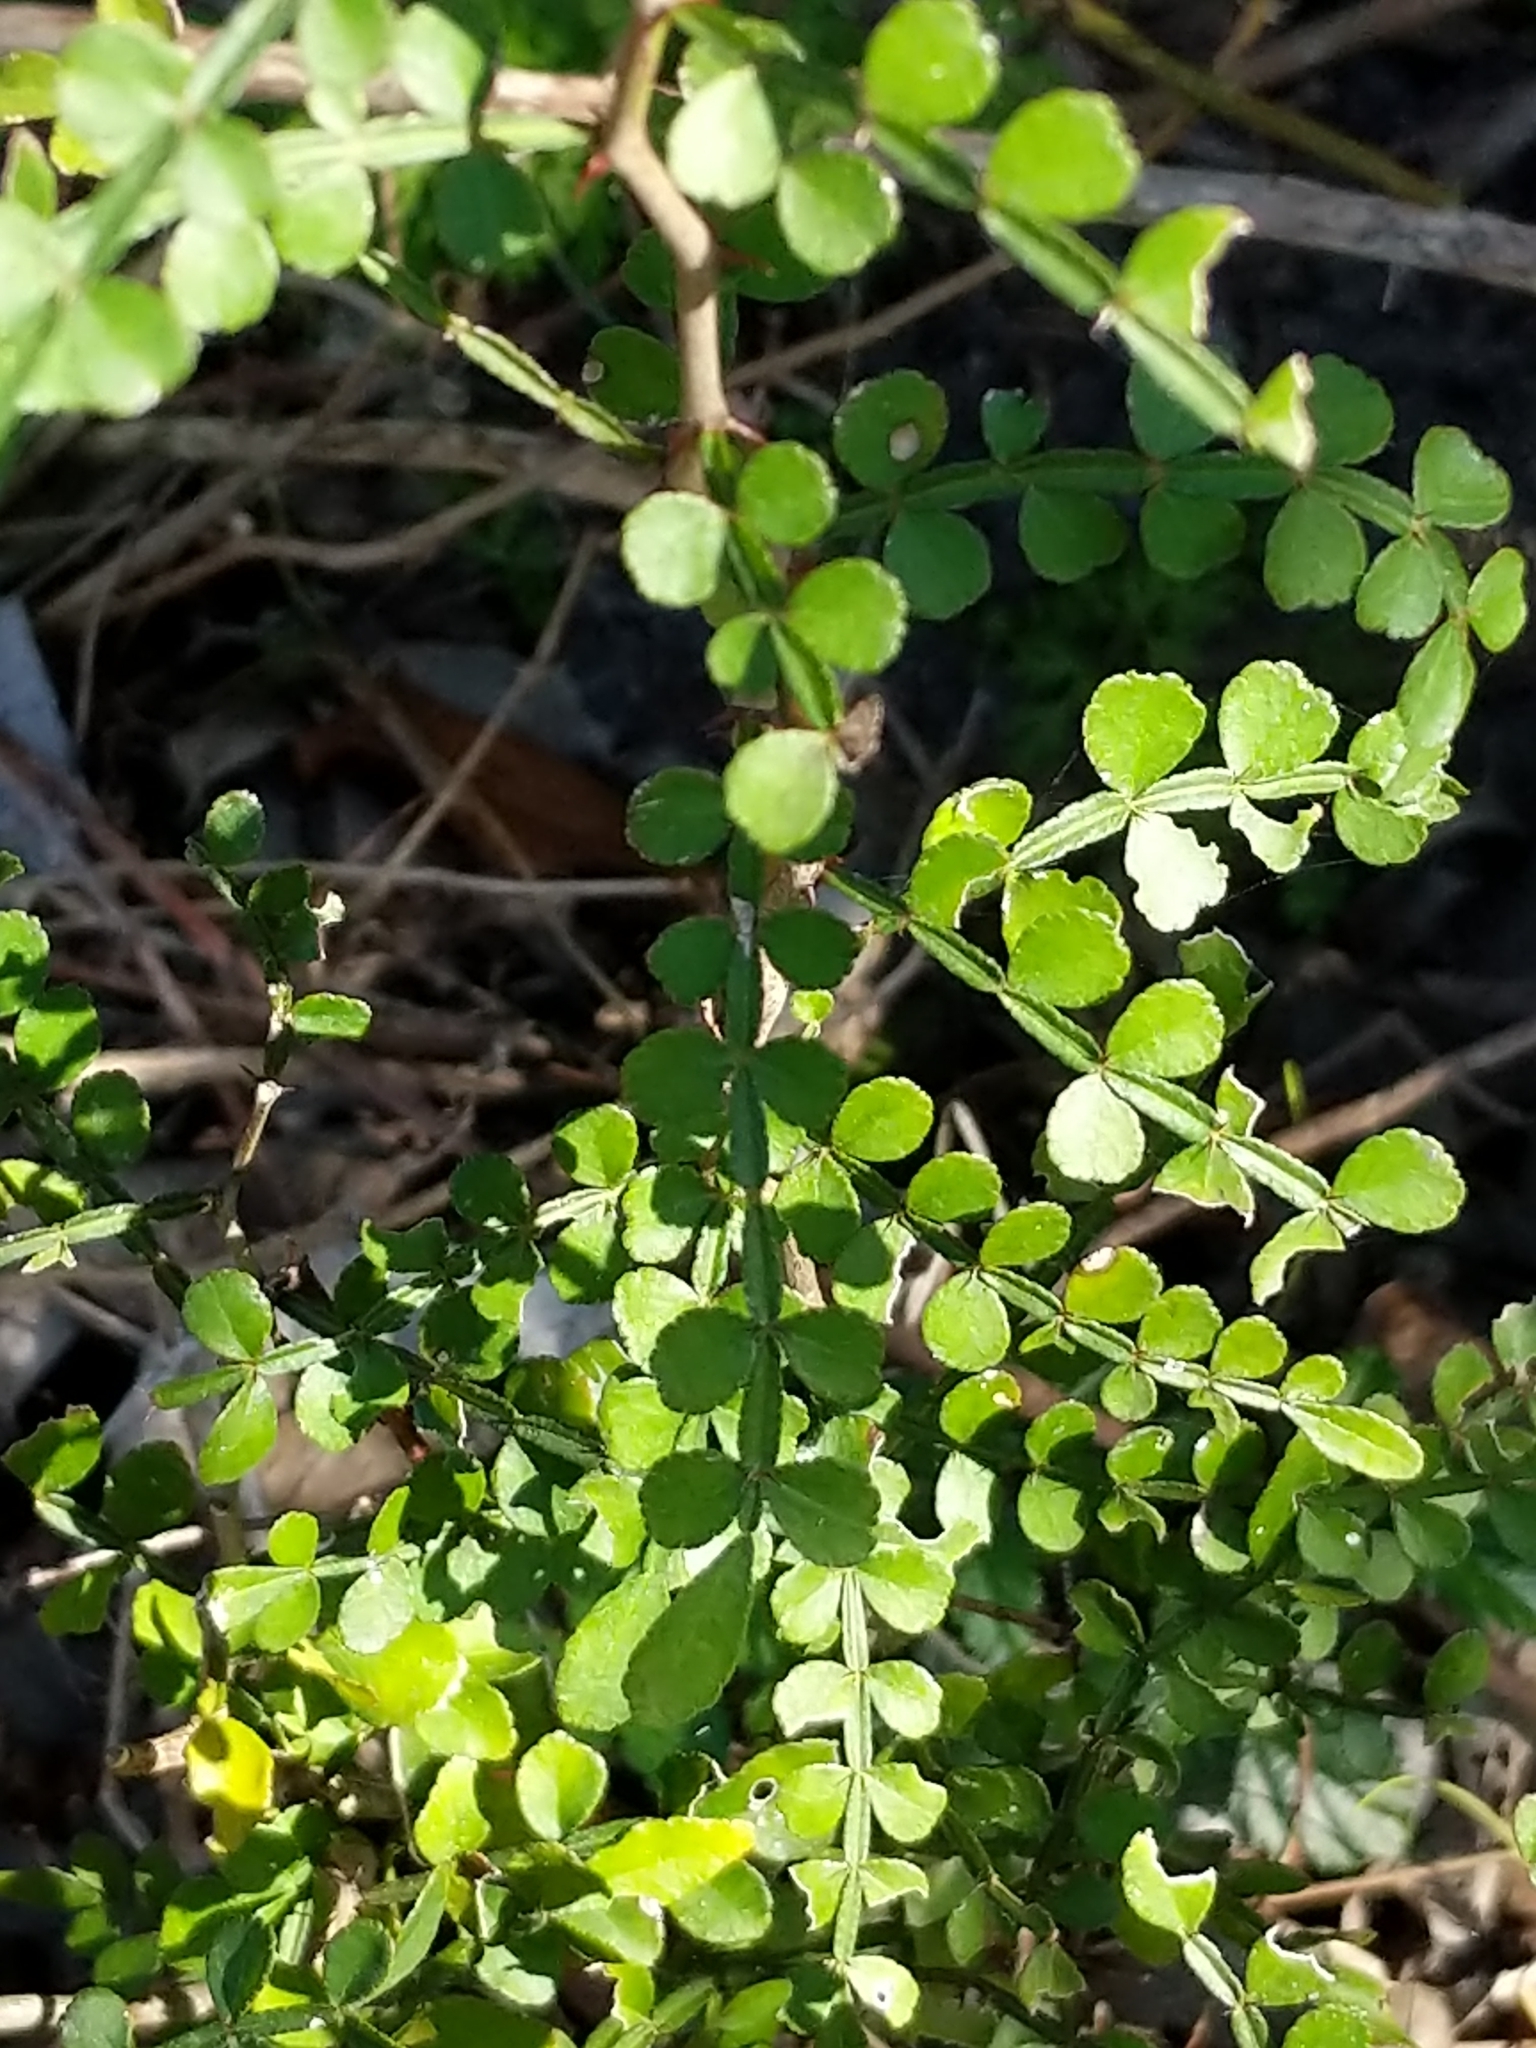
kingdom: Plantae
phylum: Tracheophyta
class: Magnoliopsida
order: Sapindales
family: Rutaceae
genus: Zanthoxylum
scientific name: Zanthoxylum fagara
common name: Lime prickly-ash
